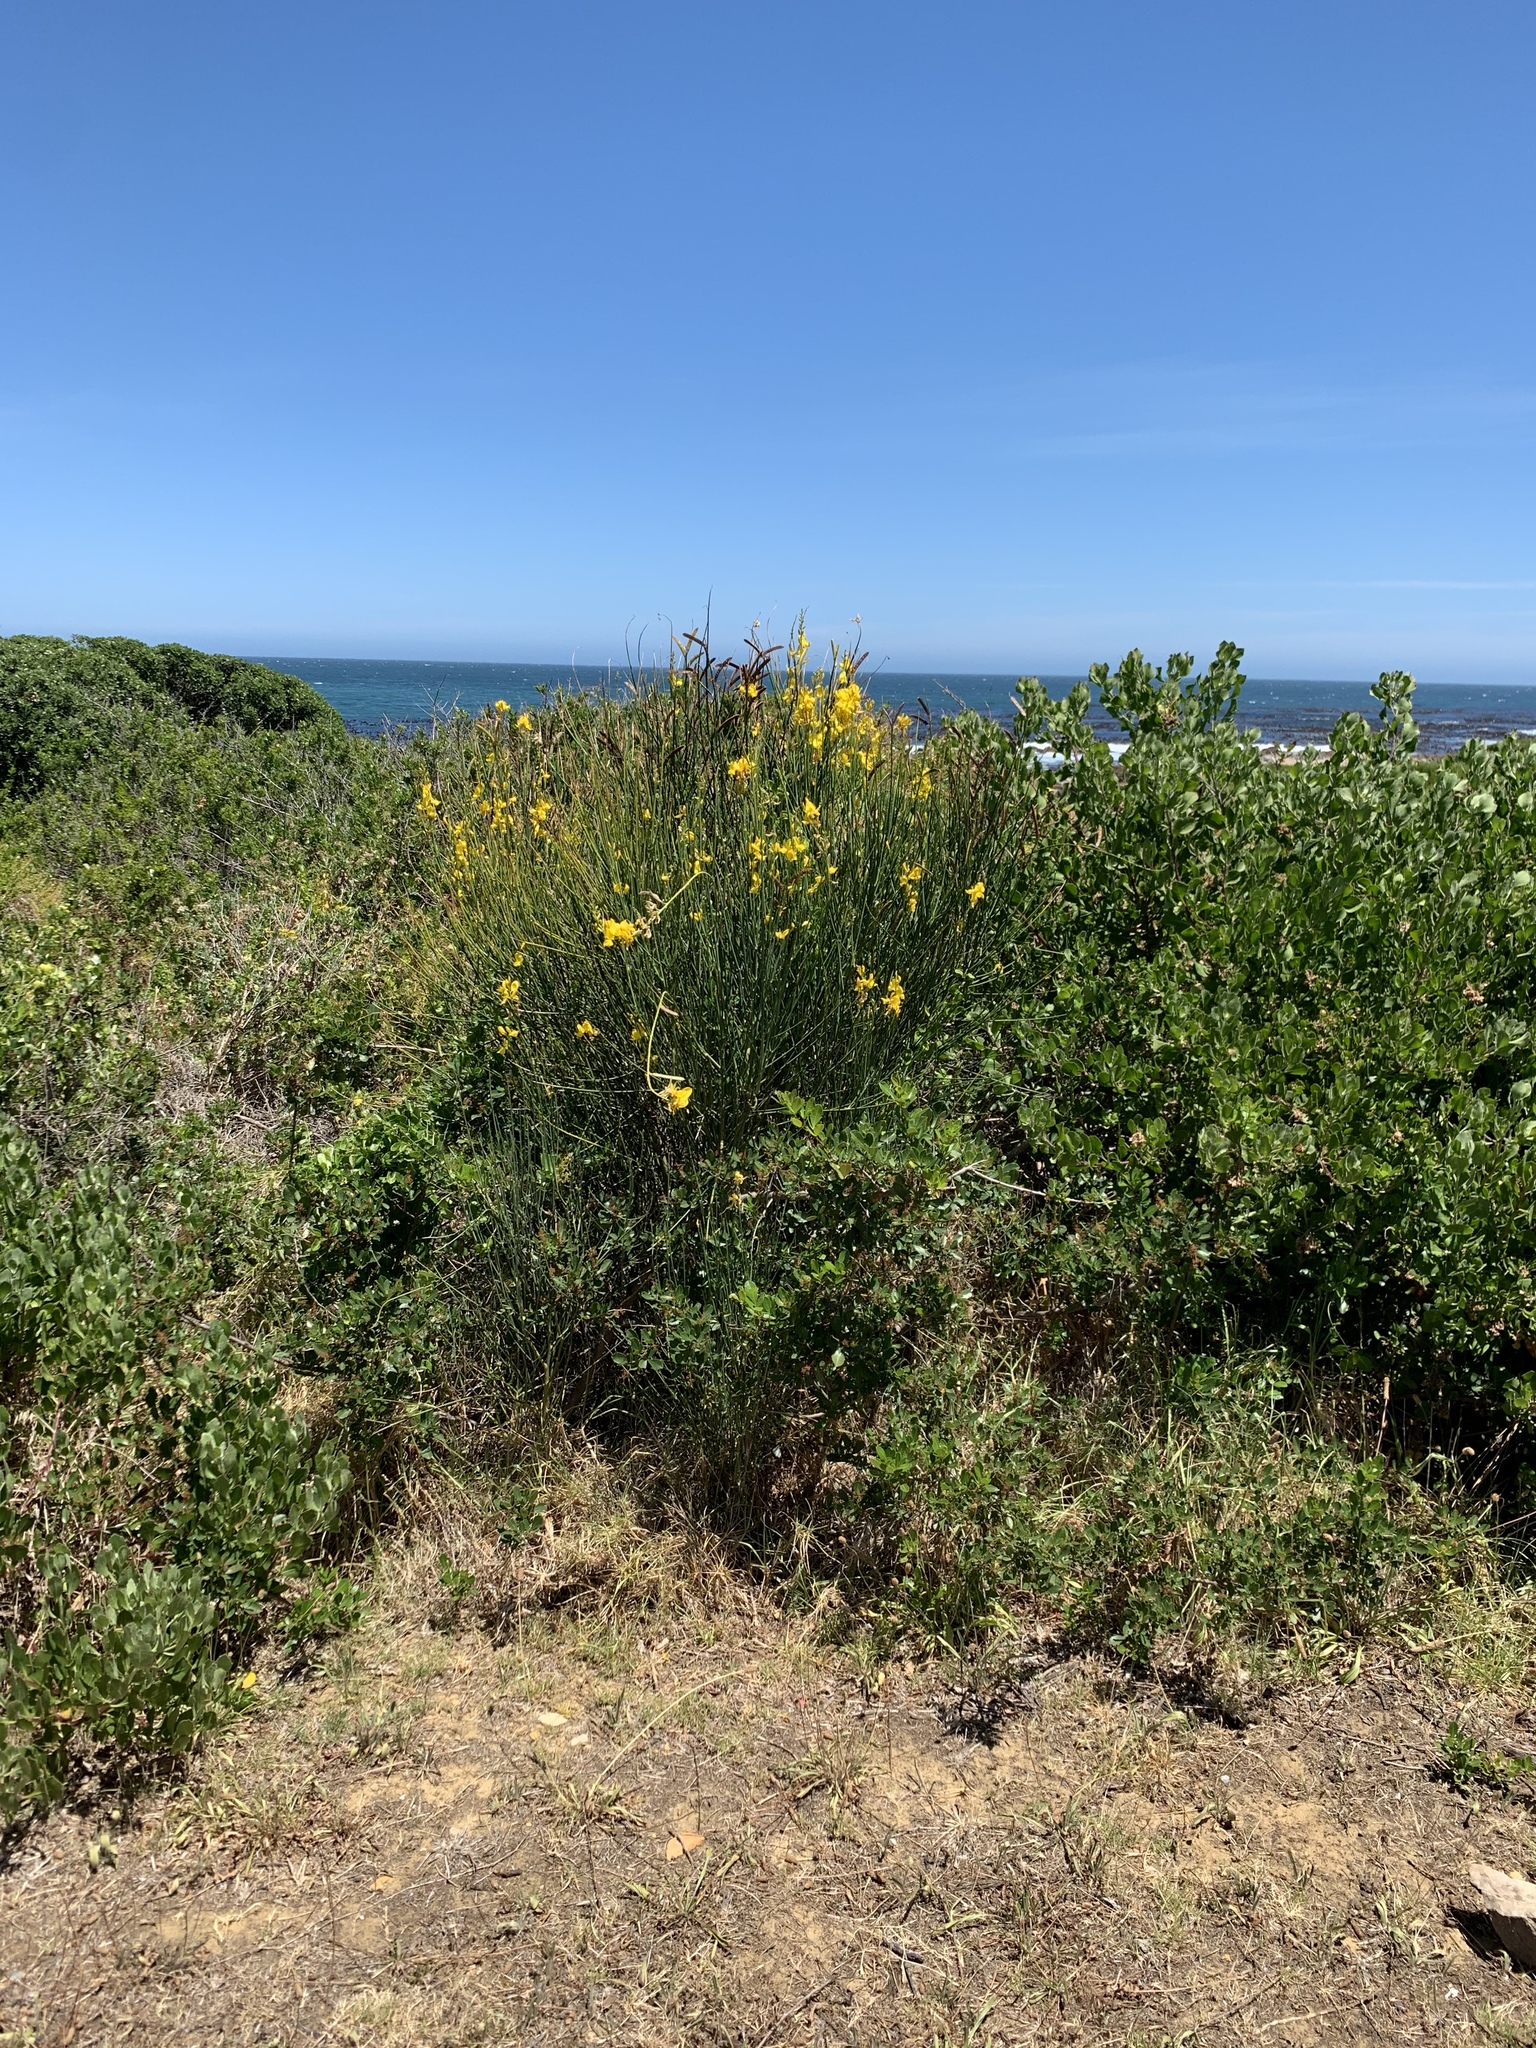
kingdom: Plantae
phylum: Tracheophyta
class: Magnoliopsida
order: Fabales
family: Fabaceae
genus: Spartium
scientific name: Spartium junceum
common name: Spanish broom
